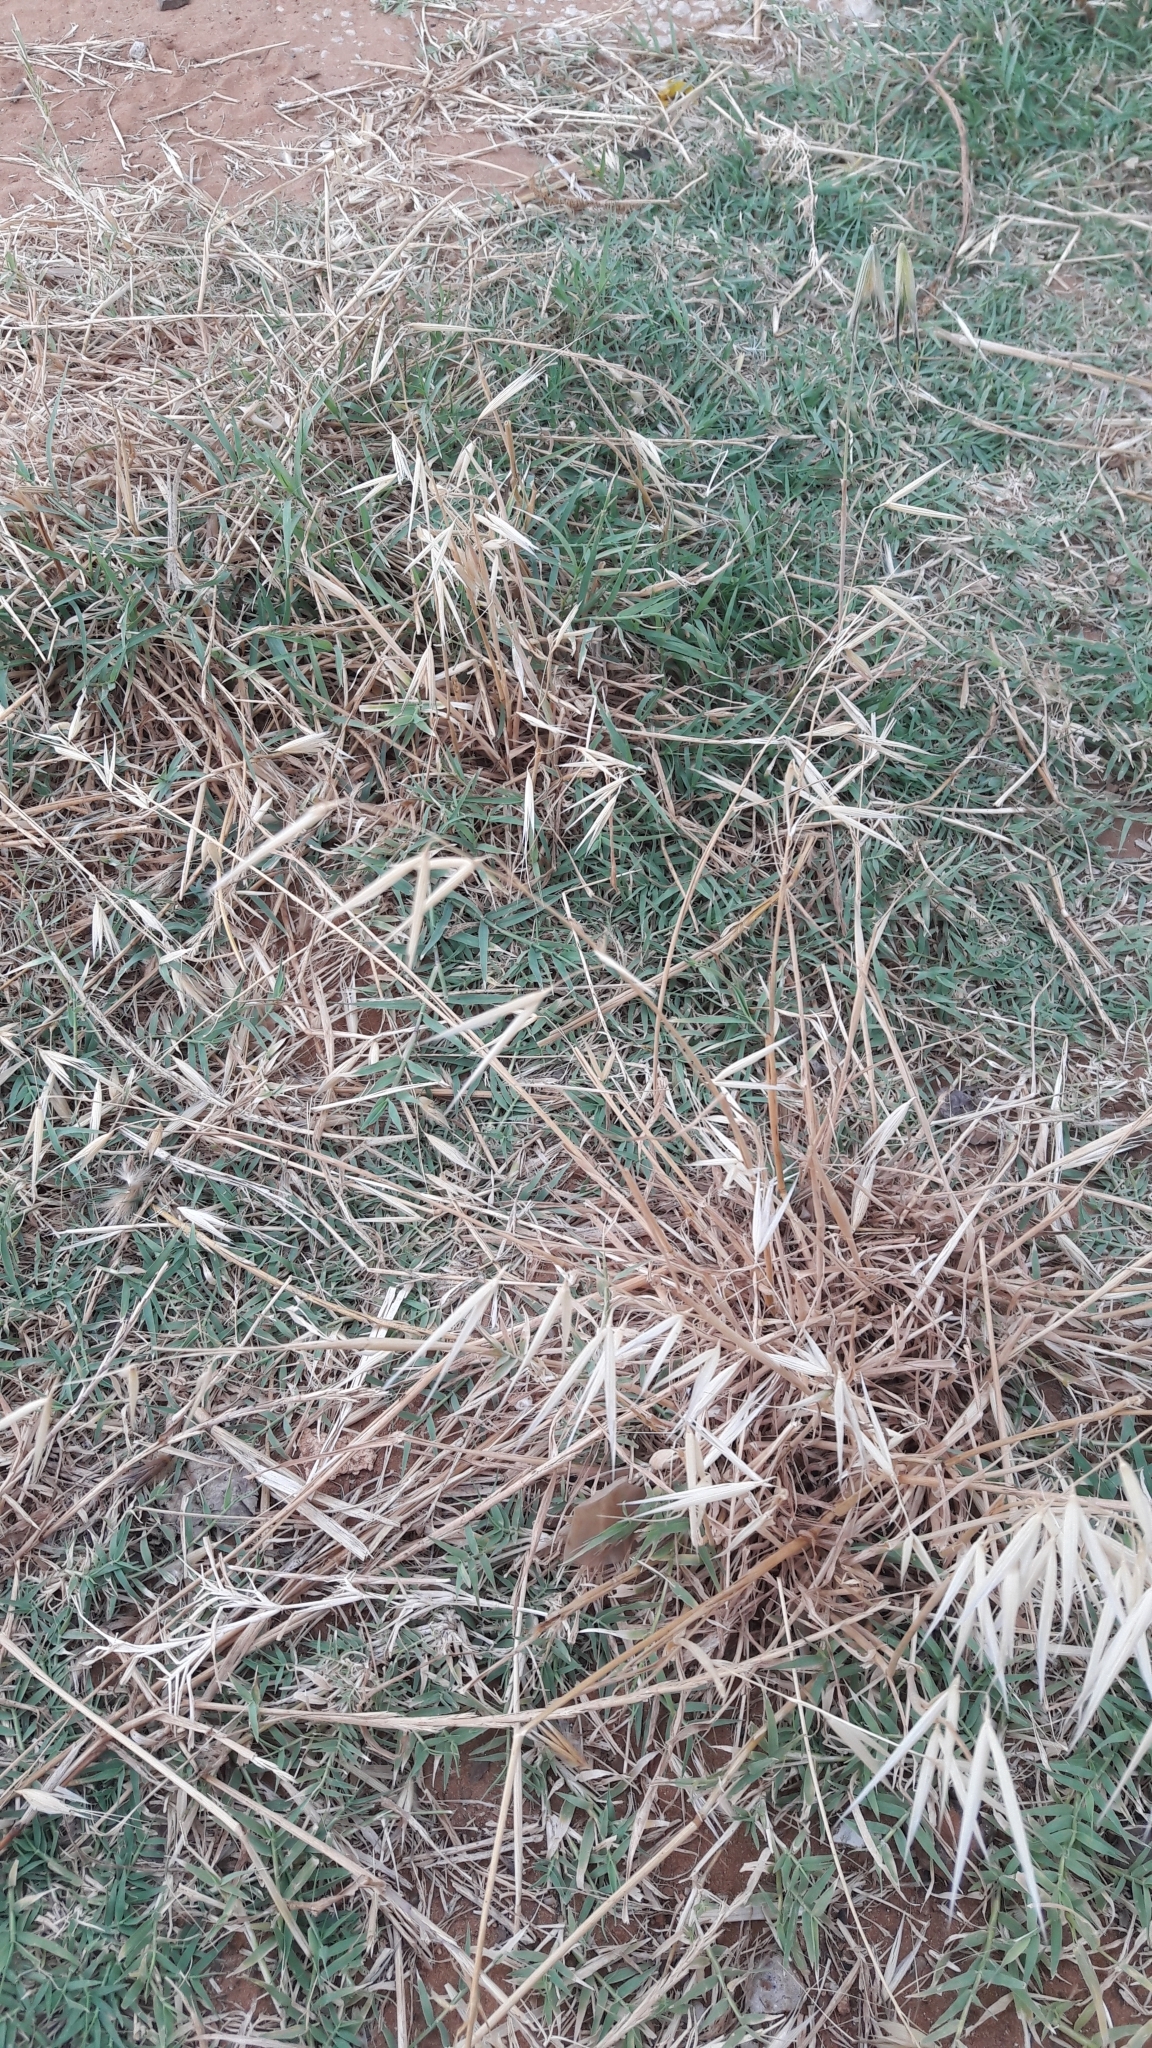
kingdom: Plantae
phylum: Tracheophyta
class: Liliopsida
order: Poales
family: Poaceae
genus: Avena
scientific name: Avena sterilis
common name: Animated oat
